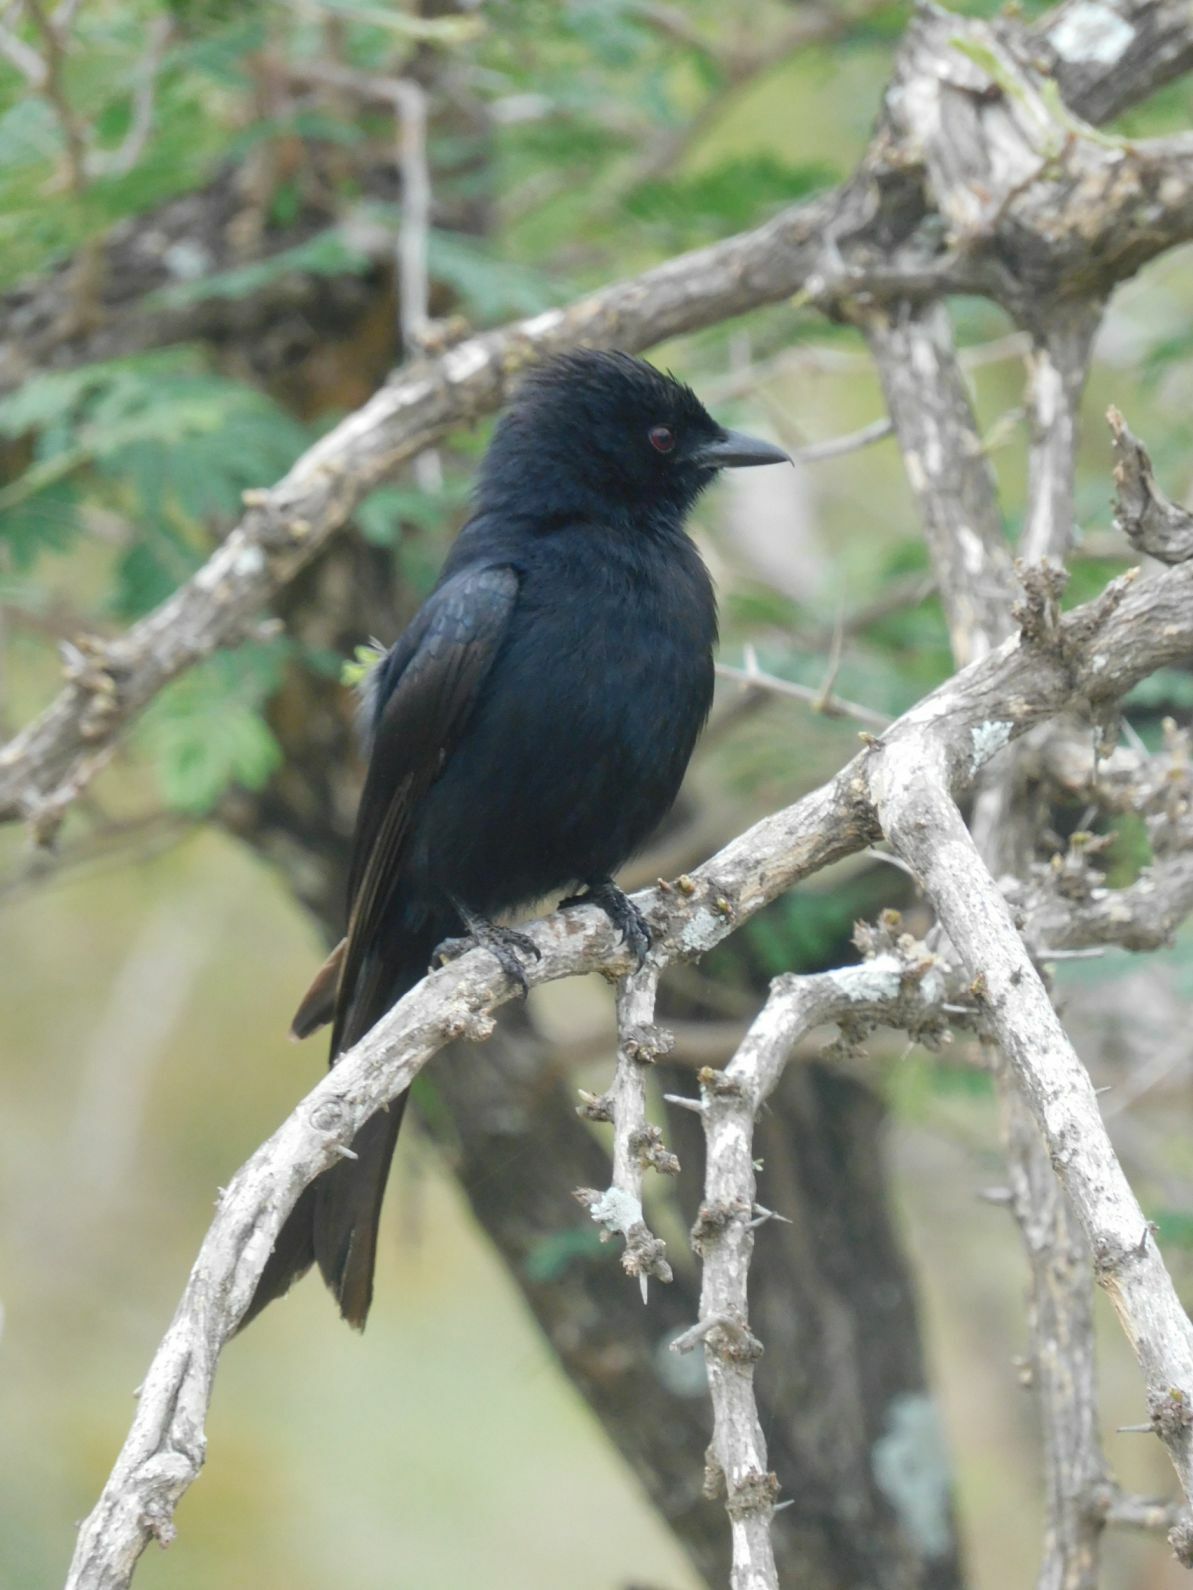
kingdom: Animalia
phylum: Chordata
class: Aves
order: Passeriformes
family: Dicruridae
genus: Dicrurus
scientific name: Dicrurus adsimilis
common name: Fork-tailed drongo
